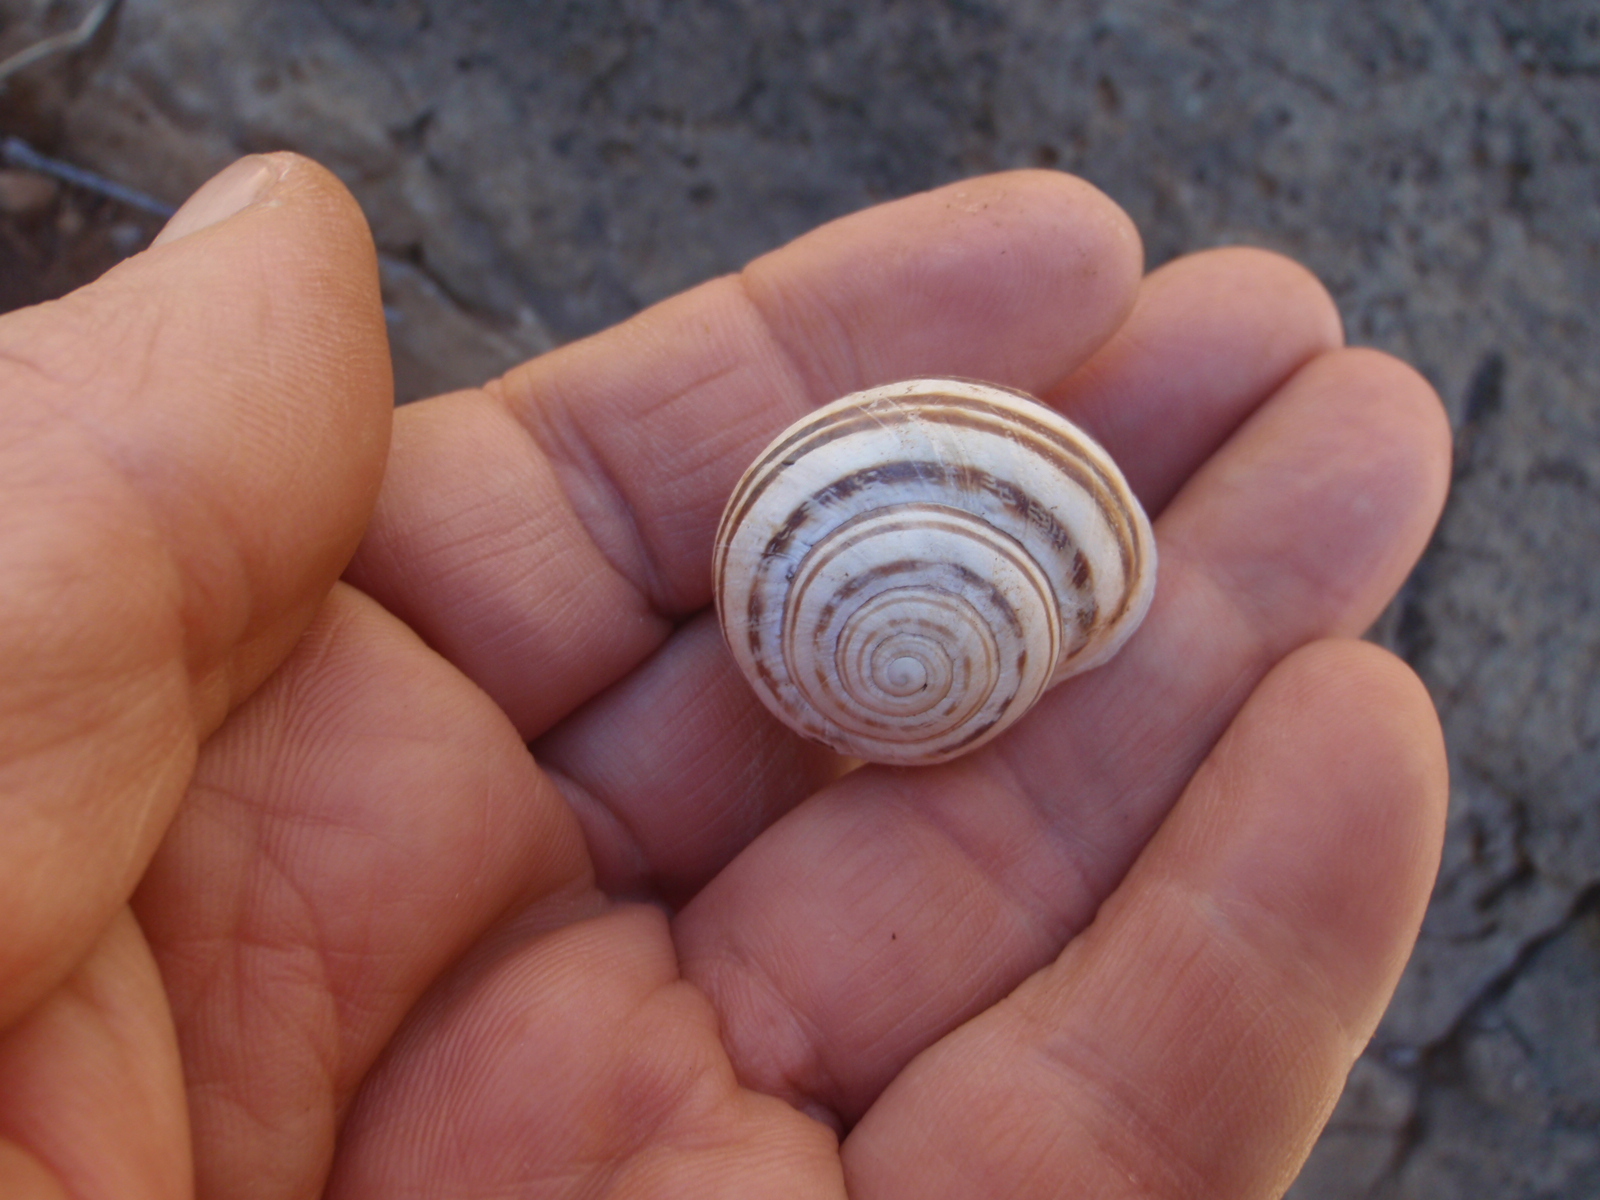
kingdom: Animalia
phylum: Mollusca
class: Gastropoda
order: Stylommatophora
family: Helicidae
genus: Eobania
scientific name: Eobania vermiculata
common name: Chocolateband snail
